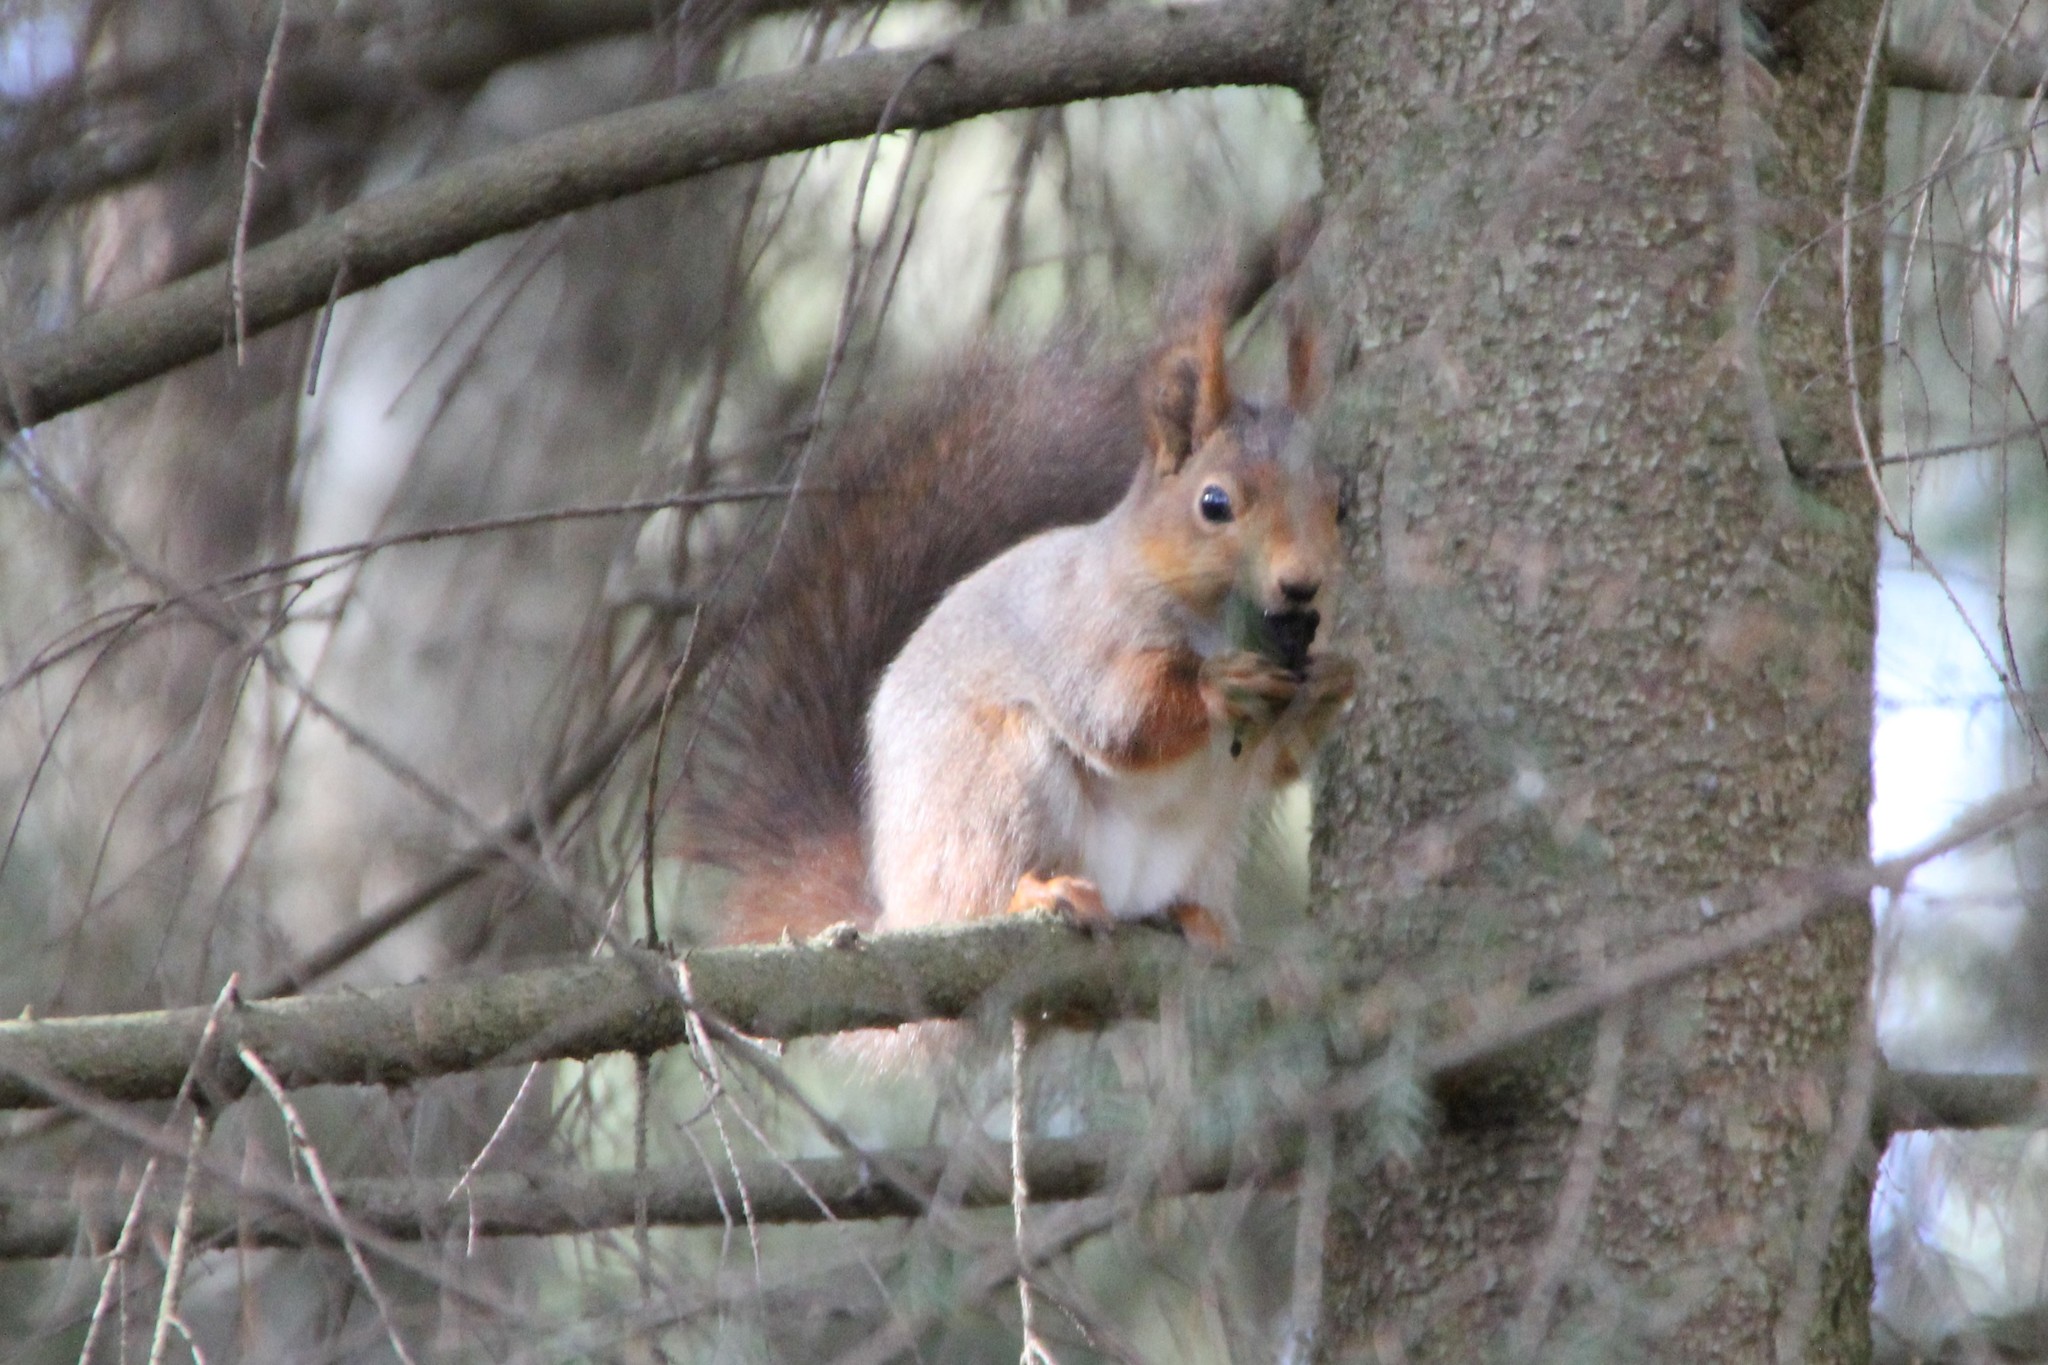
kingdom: Animalia
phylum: Chordata
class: Mammalia
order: Rodentia
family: Sciuridae
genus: Sciurus
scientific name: Sciurus vulgaris
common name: Eurasian red squirrel
